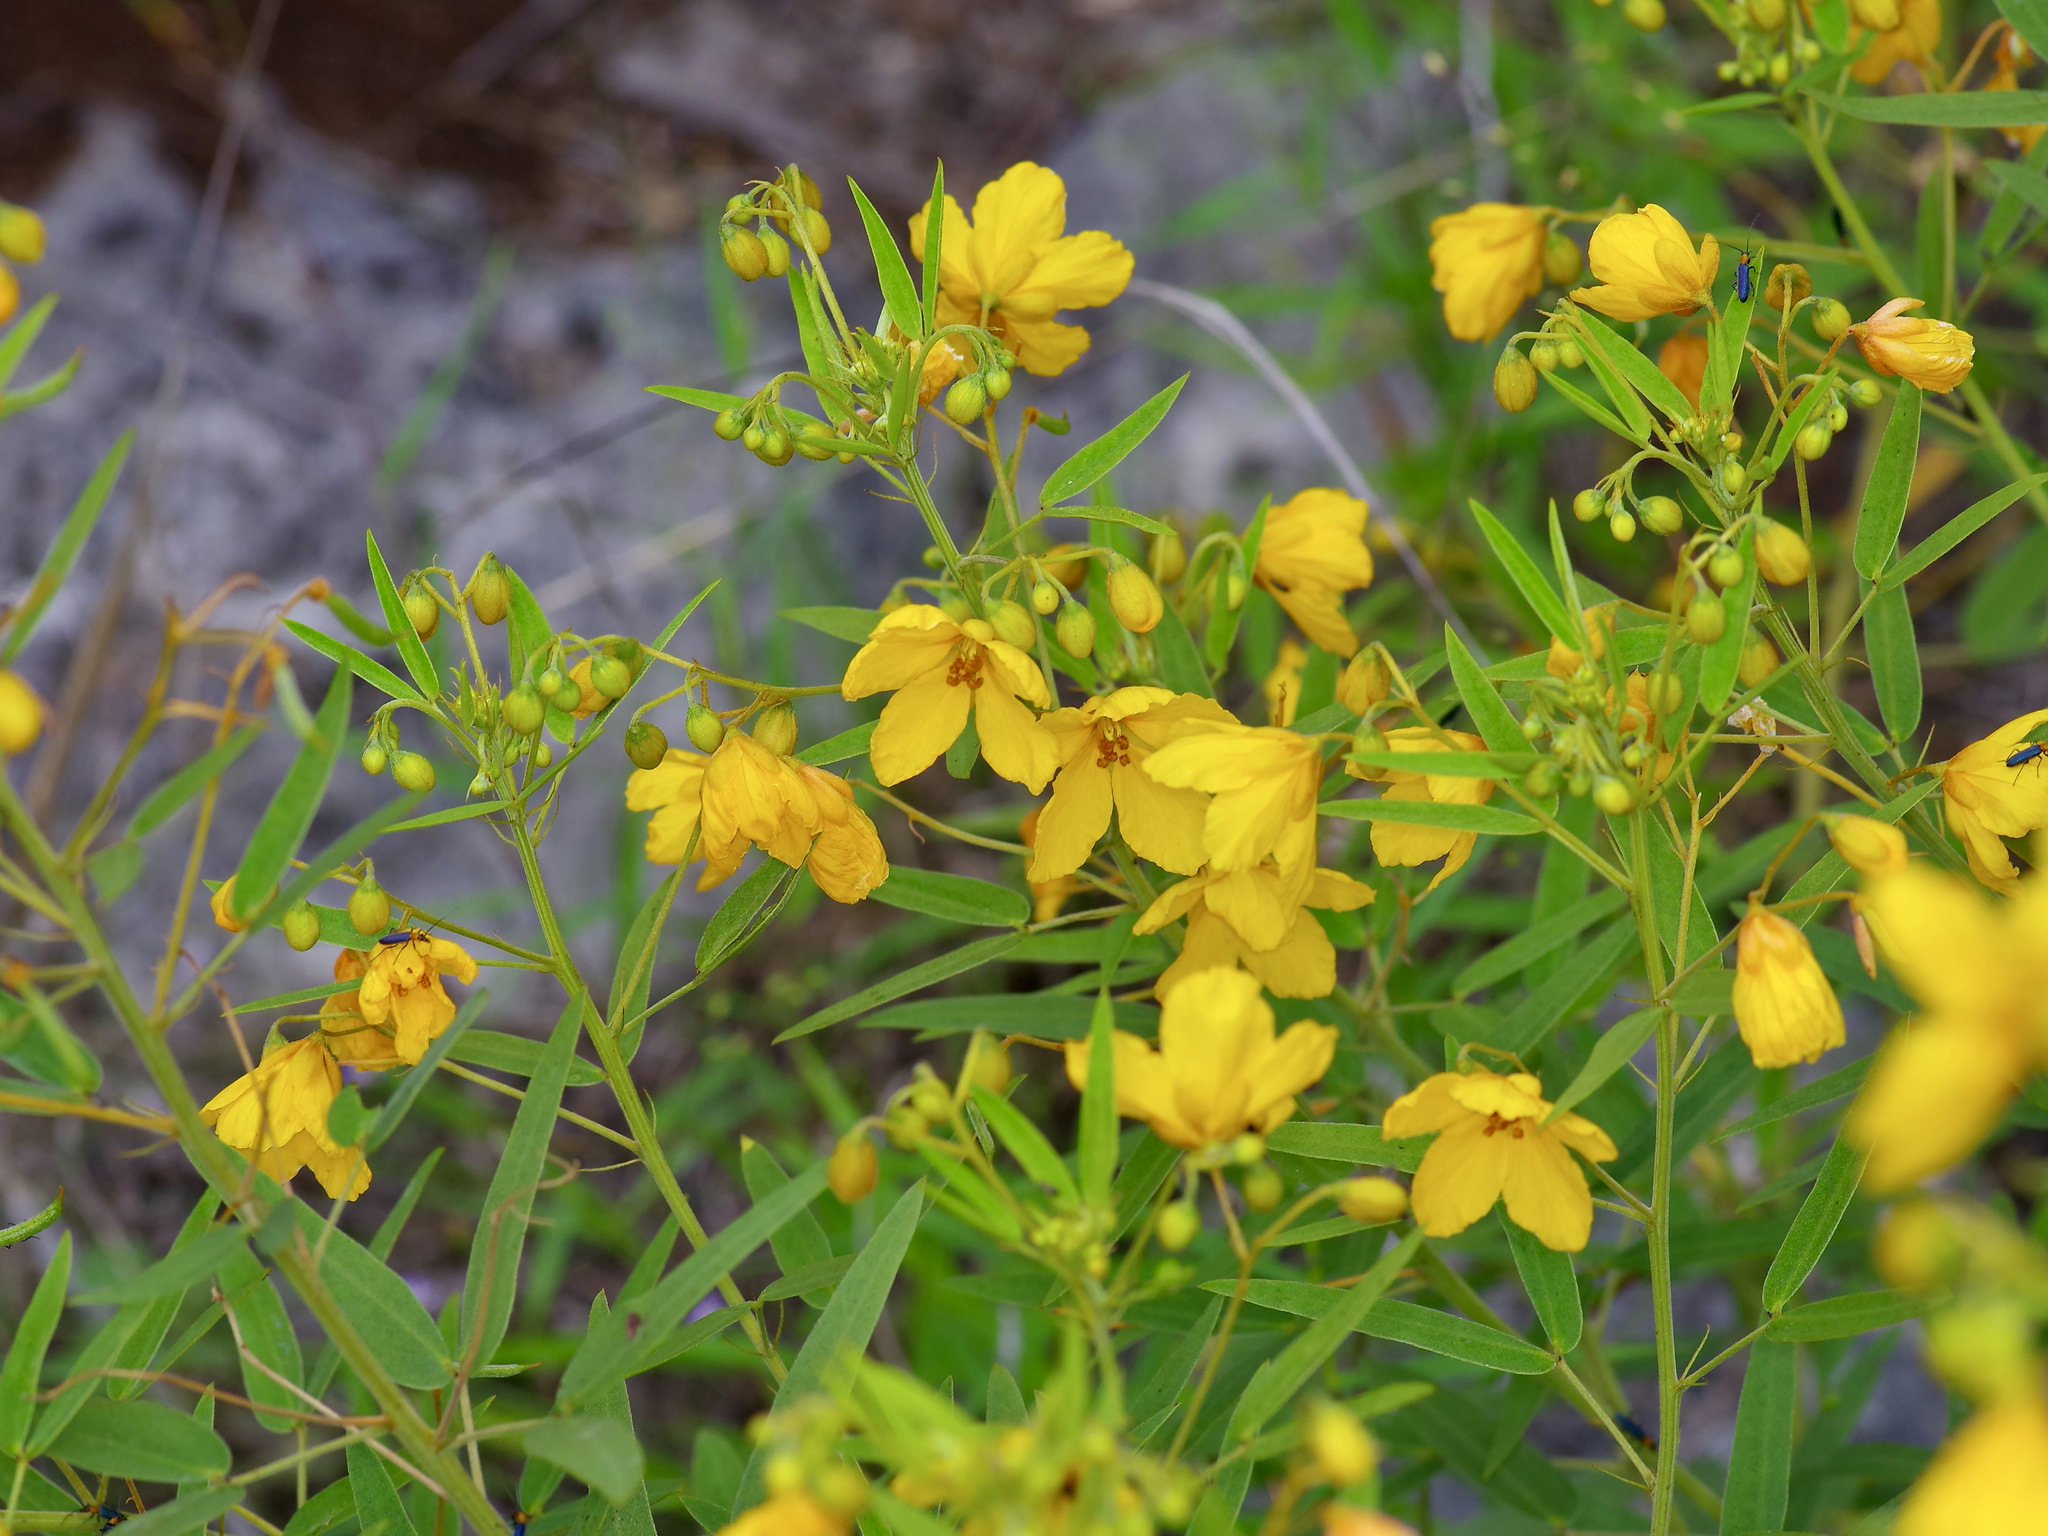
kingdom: Plantae
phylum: Tracheophyta
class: Magnoliopsida
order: Fabales
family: Fabaceae
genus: Senna
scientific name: Senna roemeriana
